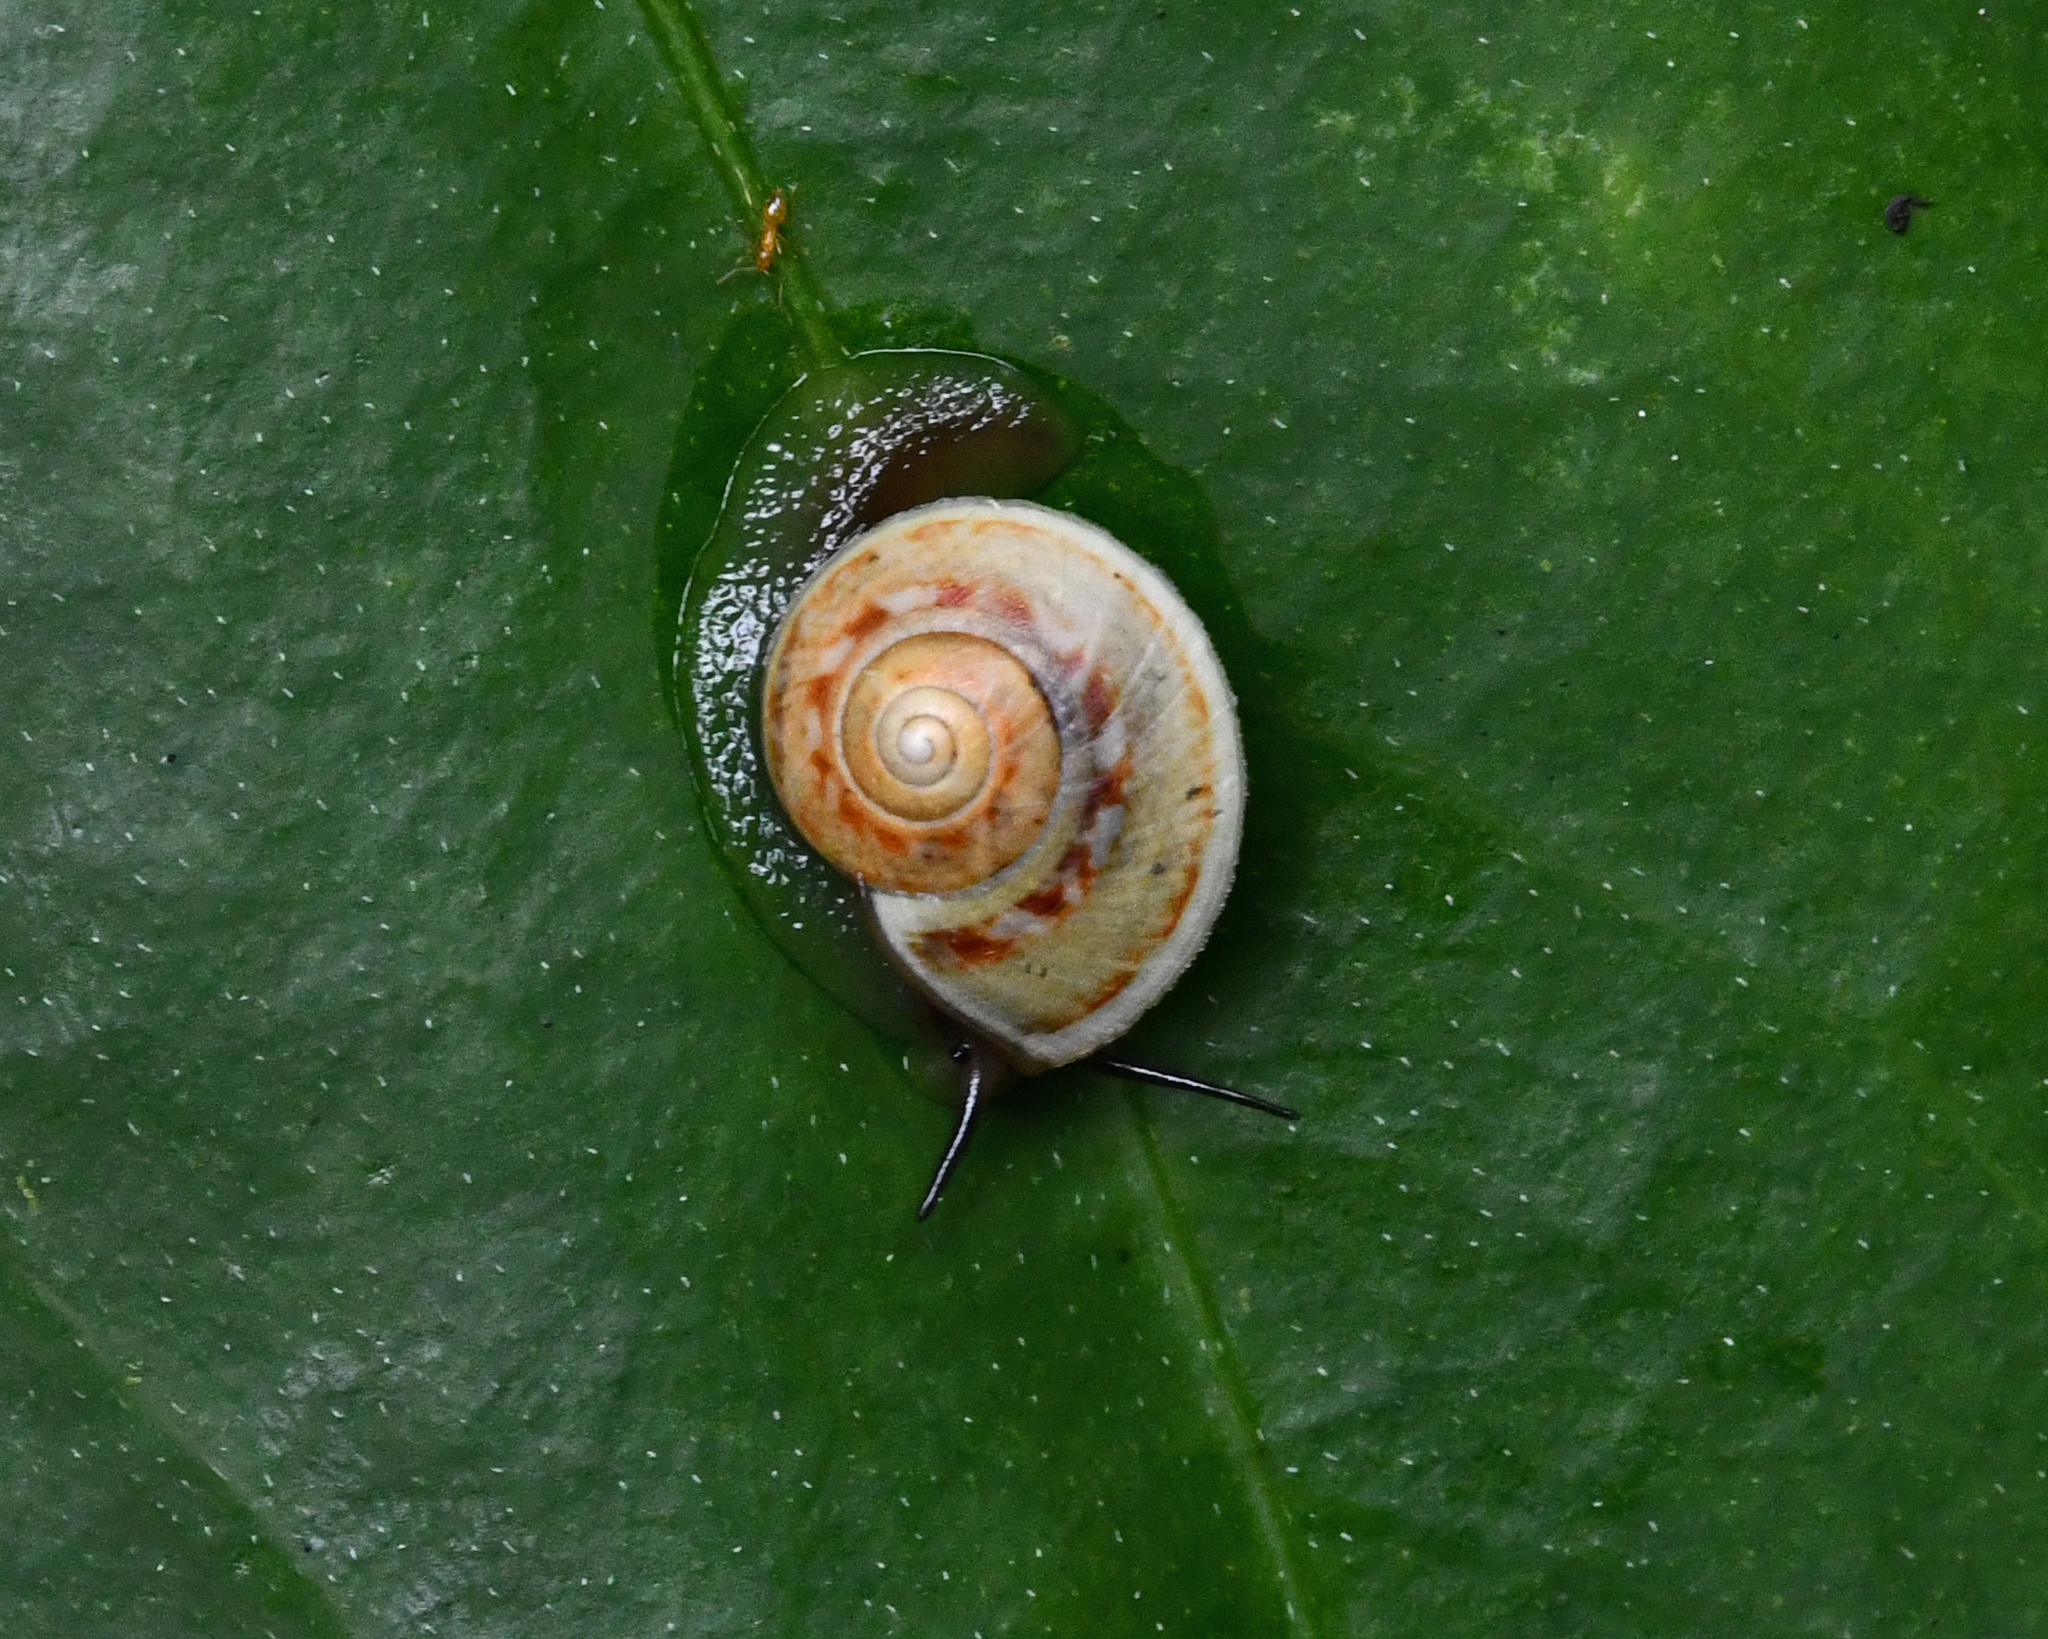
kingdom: Animalia
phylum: Mollusca
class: Gastropoda
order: Cycloneritida
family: Helicinidae
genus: Helicina
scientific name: Helicina rhodostoma
